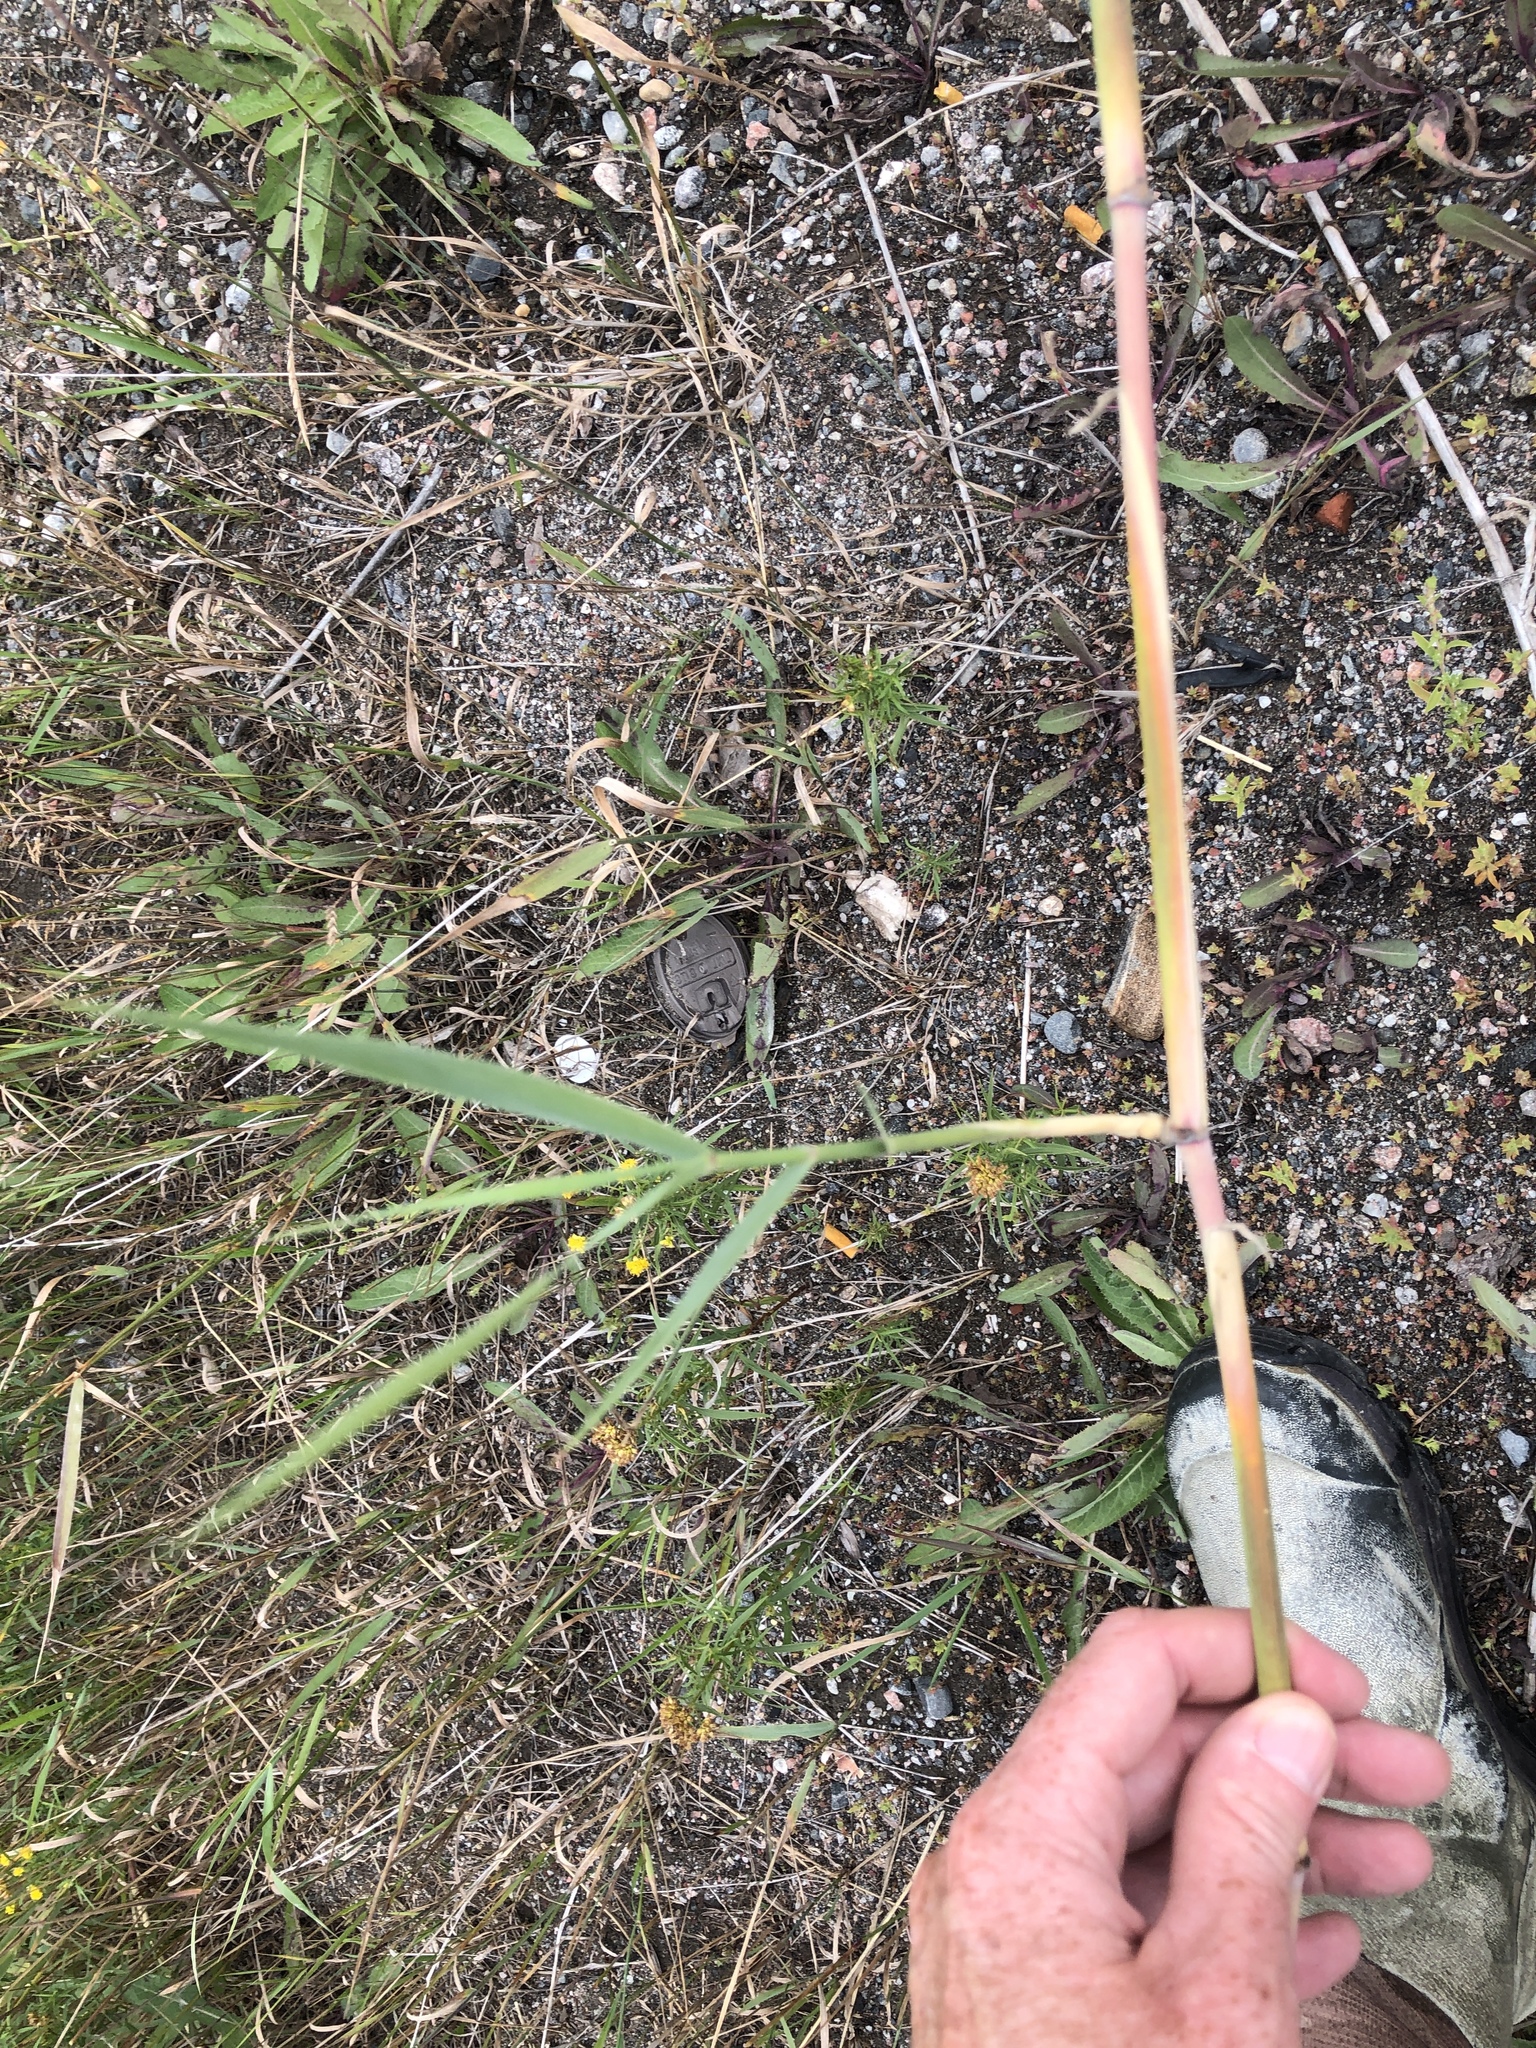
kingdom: Plantae
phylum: Tracheophyta
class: Liliopsida
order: Poales
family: Poaceae
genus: Phragmites
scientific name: Phragmites australis
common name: Common reed
